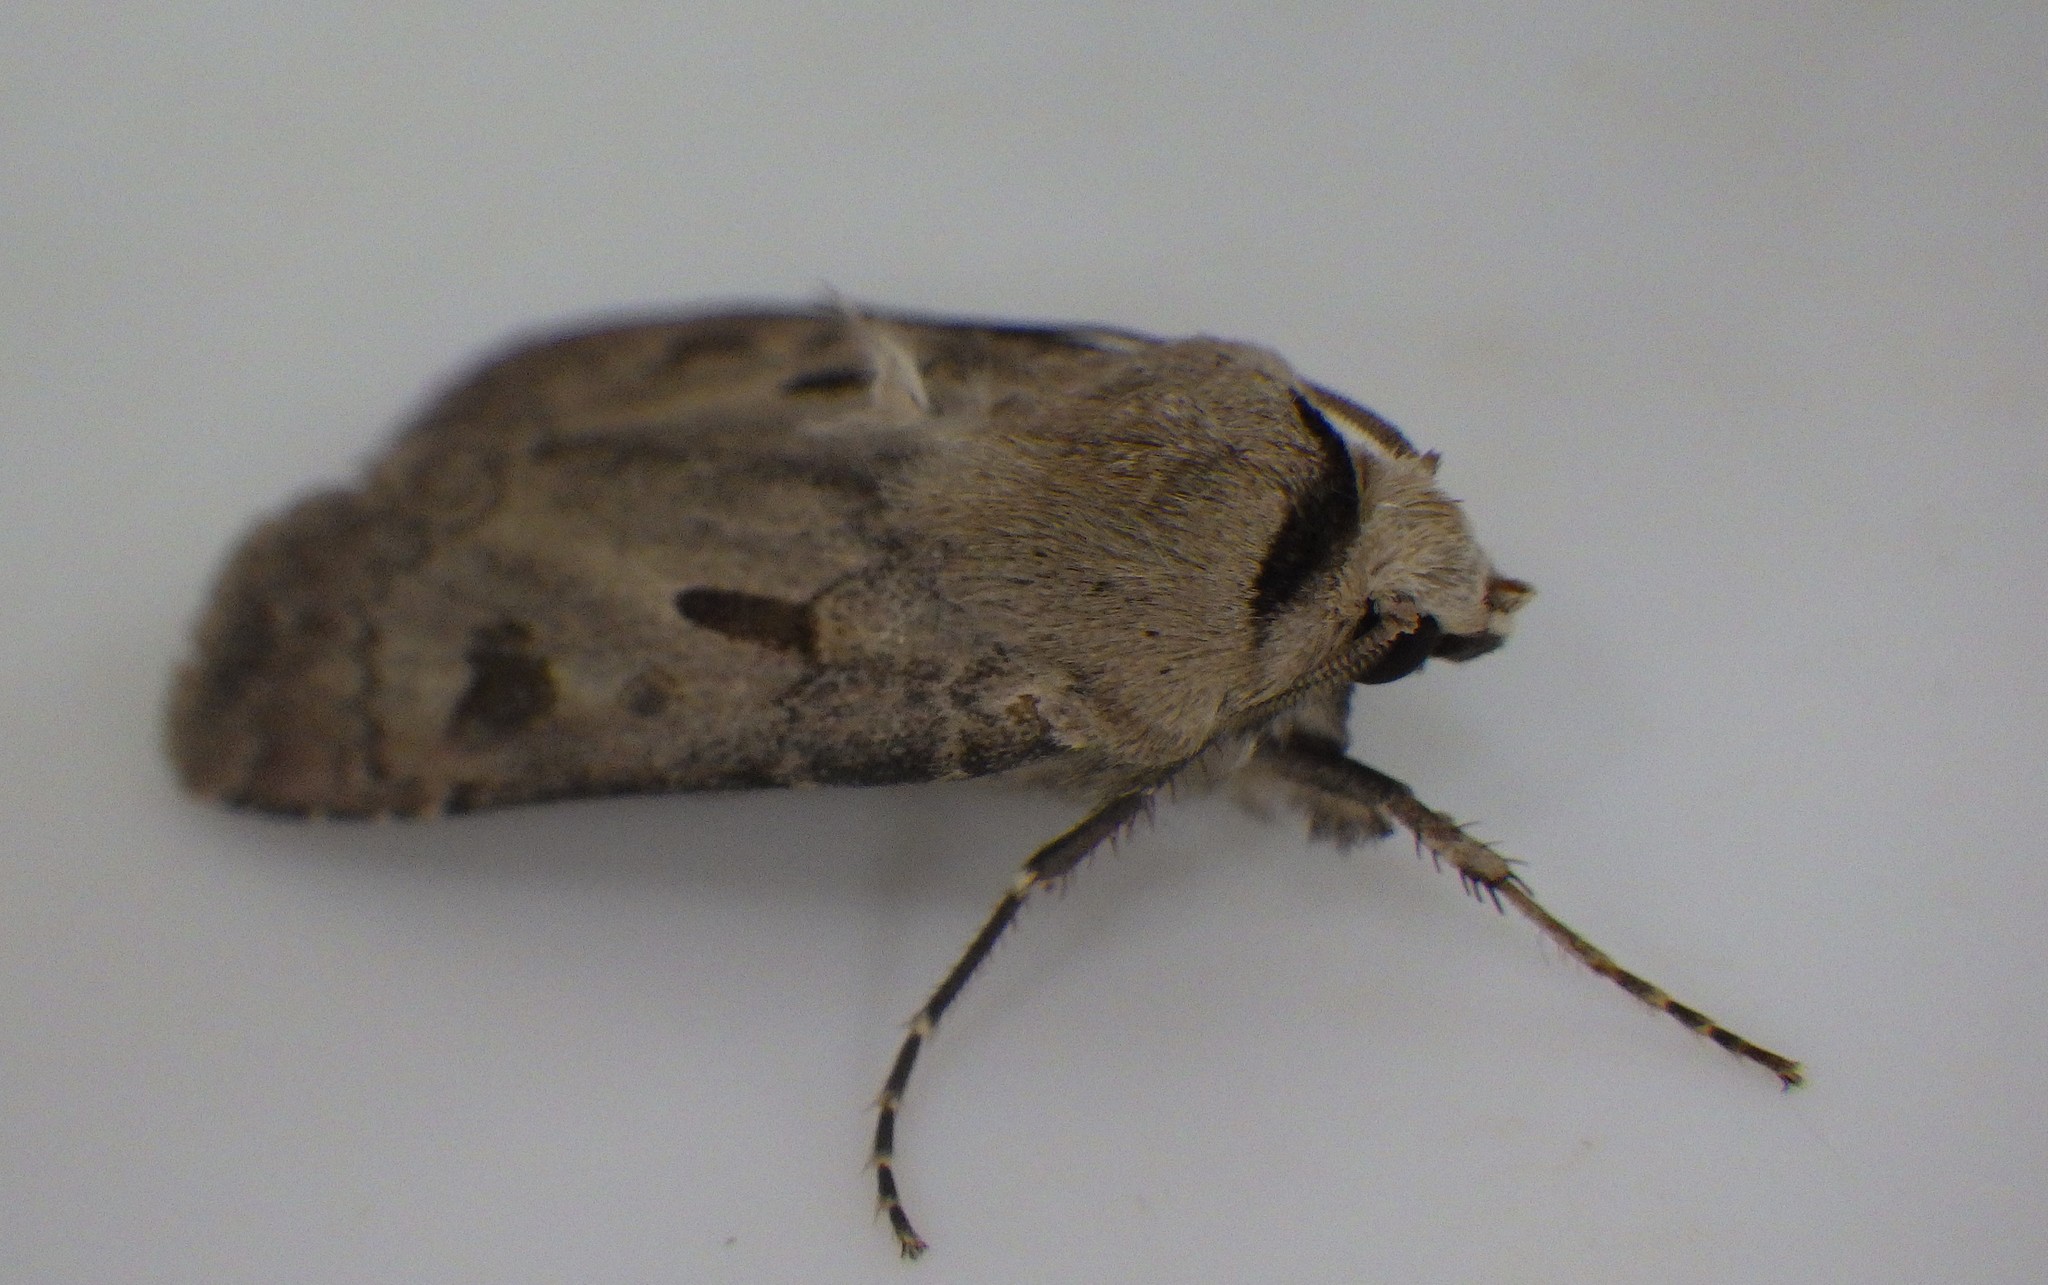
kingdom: Animalia
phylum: Arthropoda
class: Insecta
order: Lepidoptera
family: Noctuidae
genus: Agrotis
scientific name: Agrotis exclamationis
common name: Heart and dart
